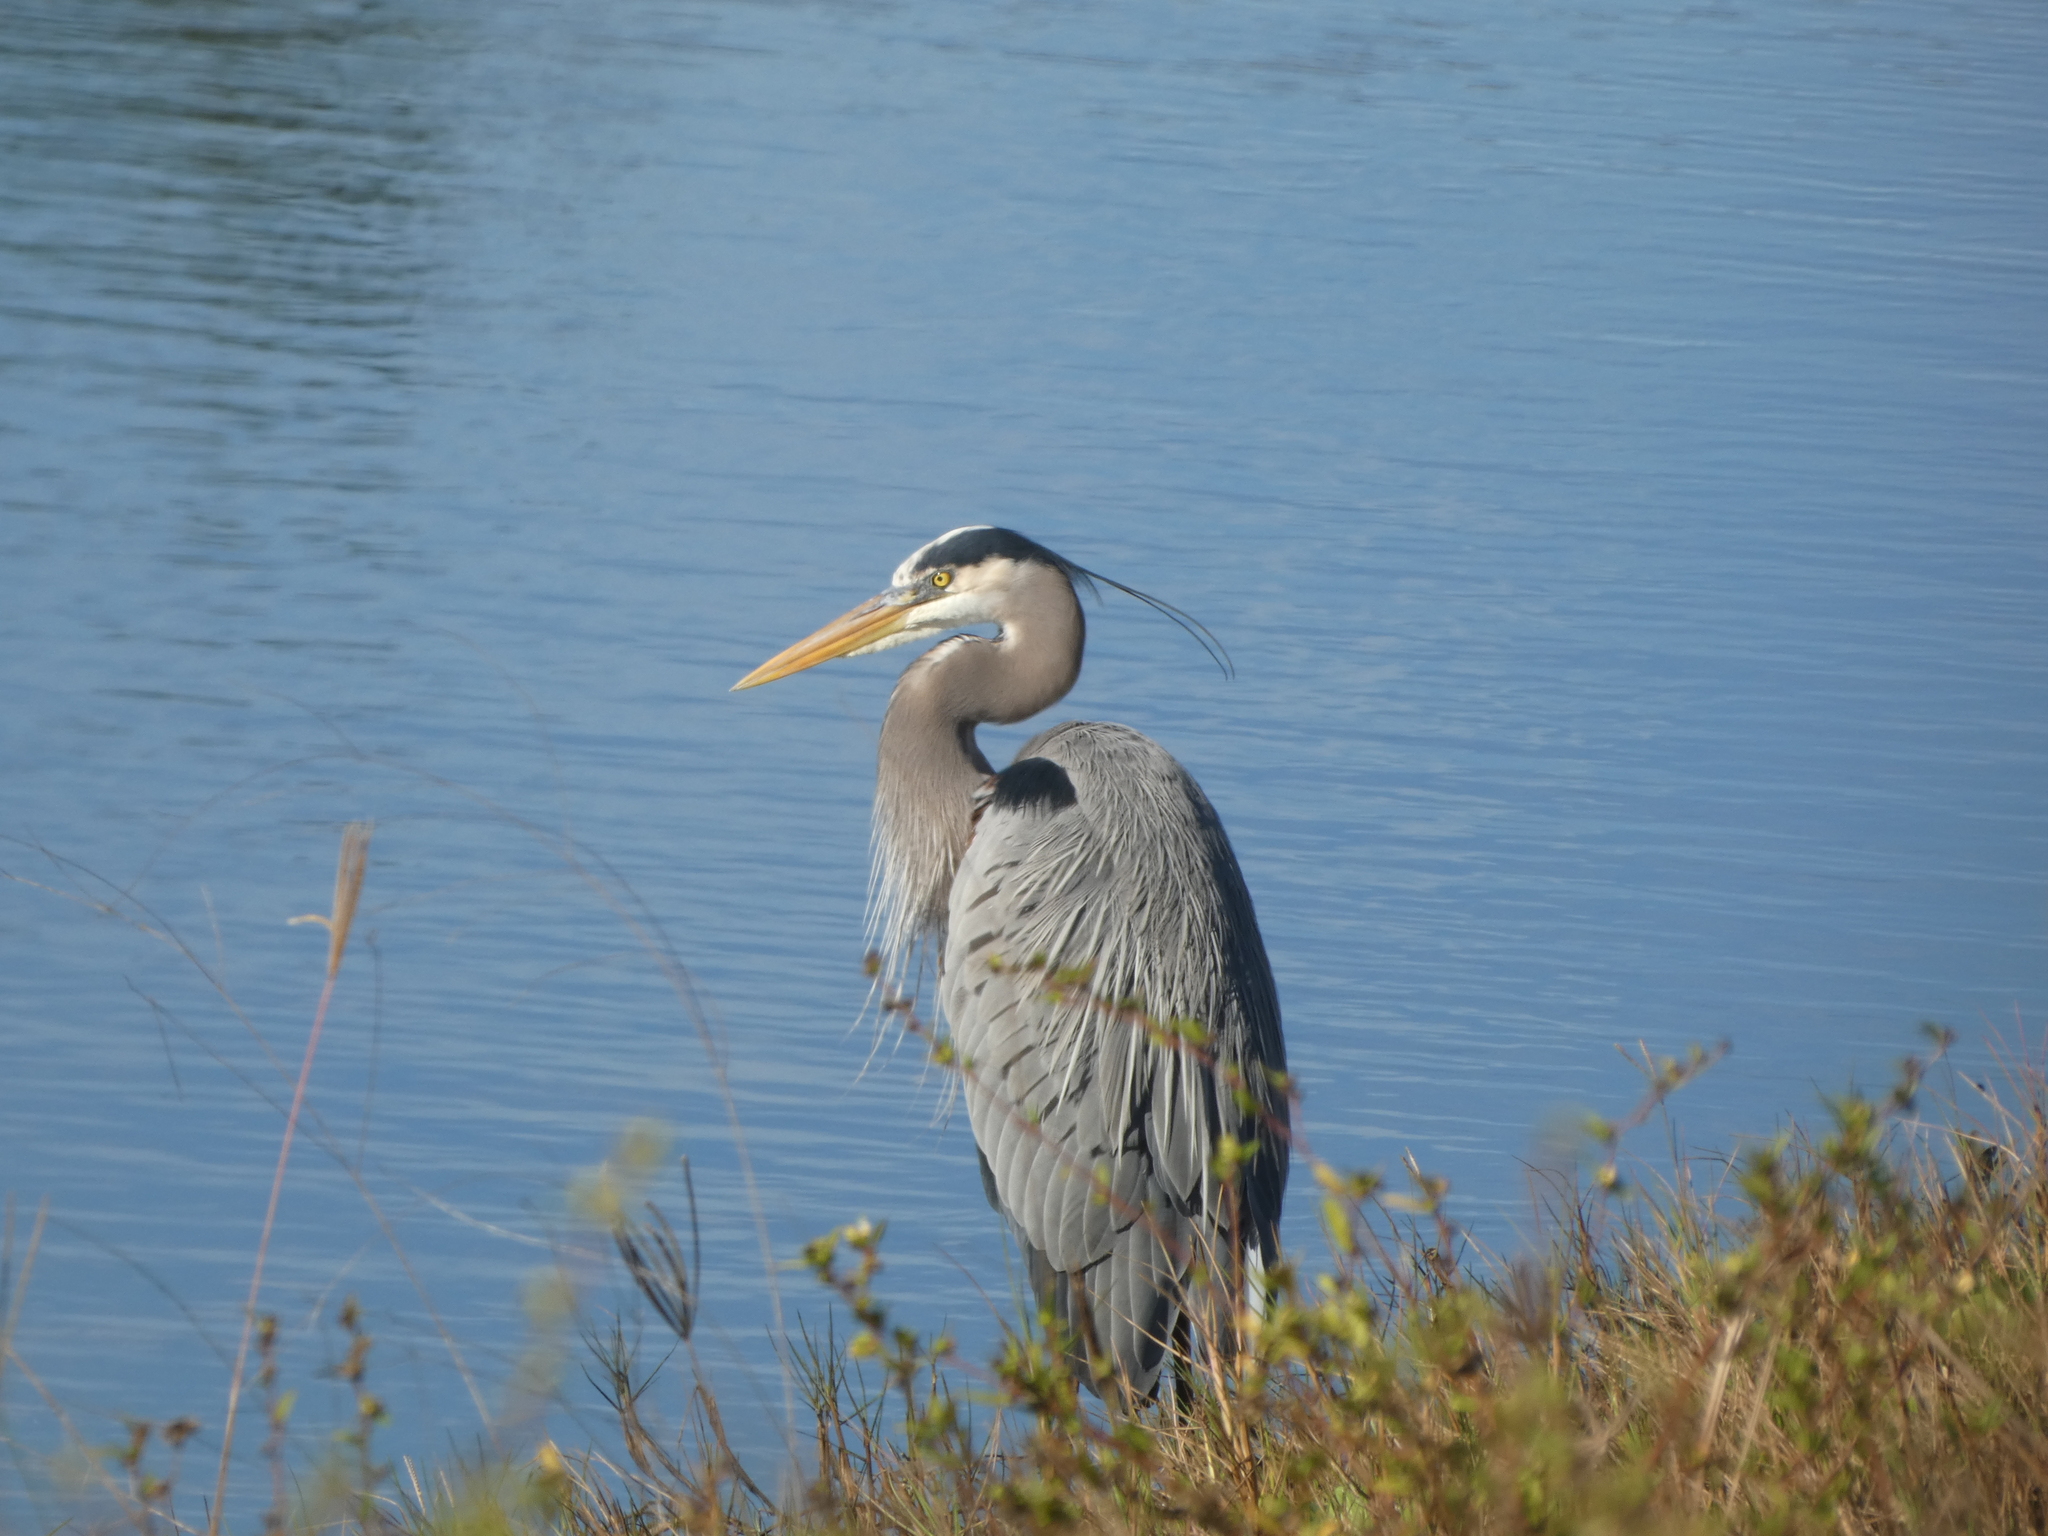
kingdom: Animalia
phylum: Chordata
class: Aves
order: Pelecaniformes
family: Ardeidae
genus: Ardea
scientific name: Ardea herodias
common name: Great blue heron
